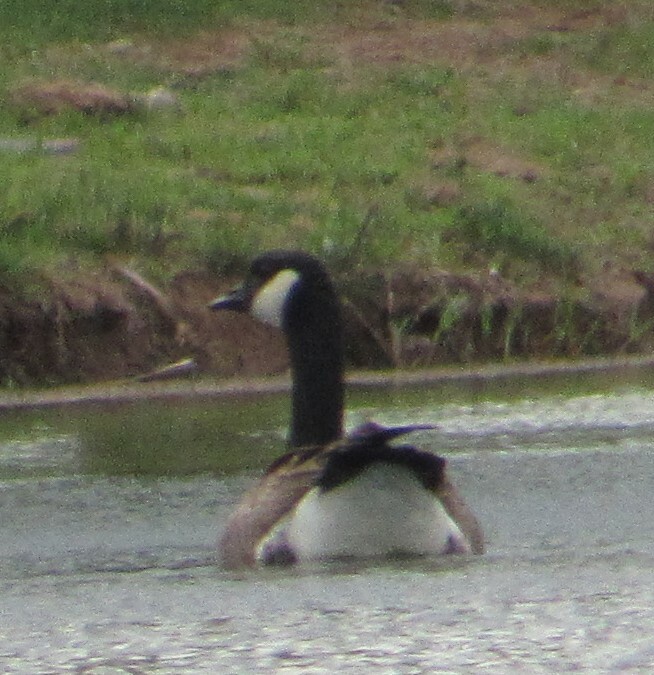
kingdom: Animalia
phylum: Chordata
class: Aves
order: Anseriformes
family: Anatidae
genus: Branta
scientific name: Branta canadensis
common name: Canada goose
